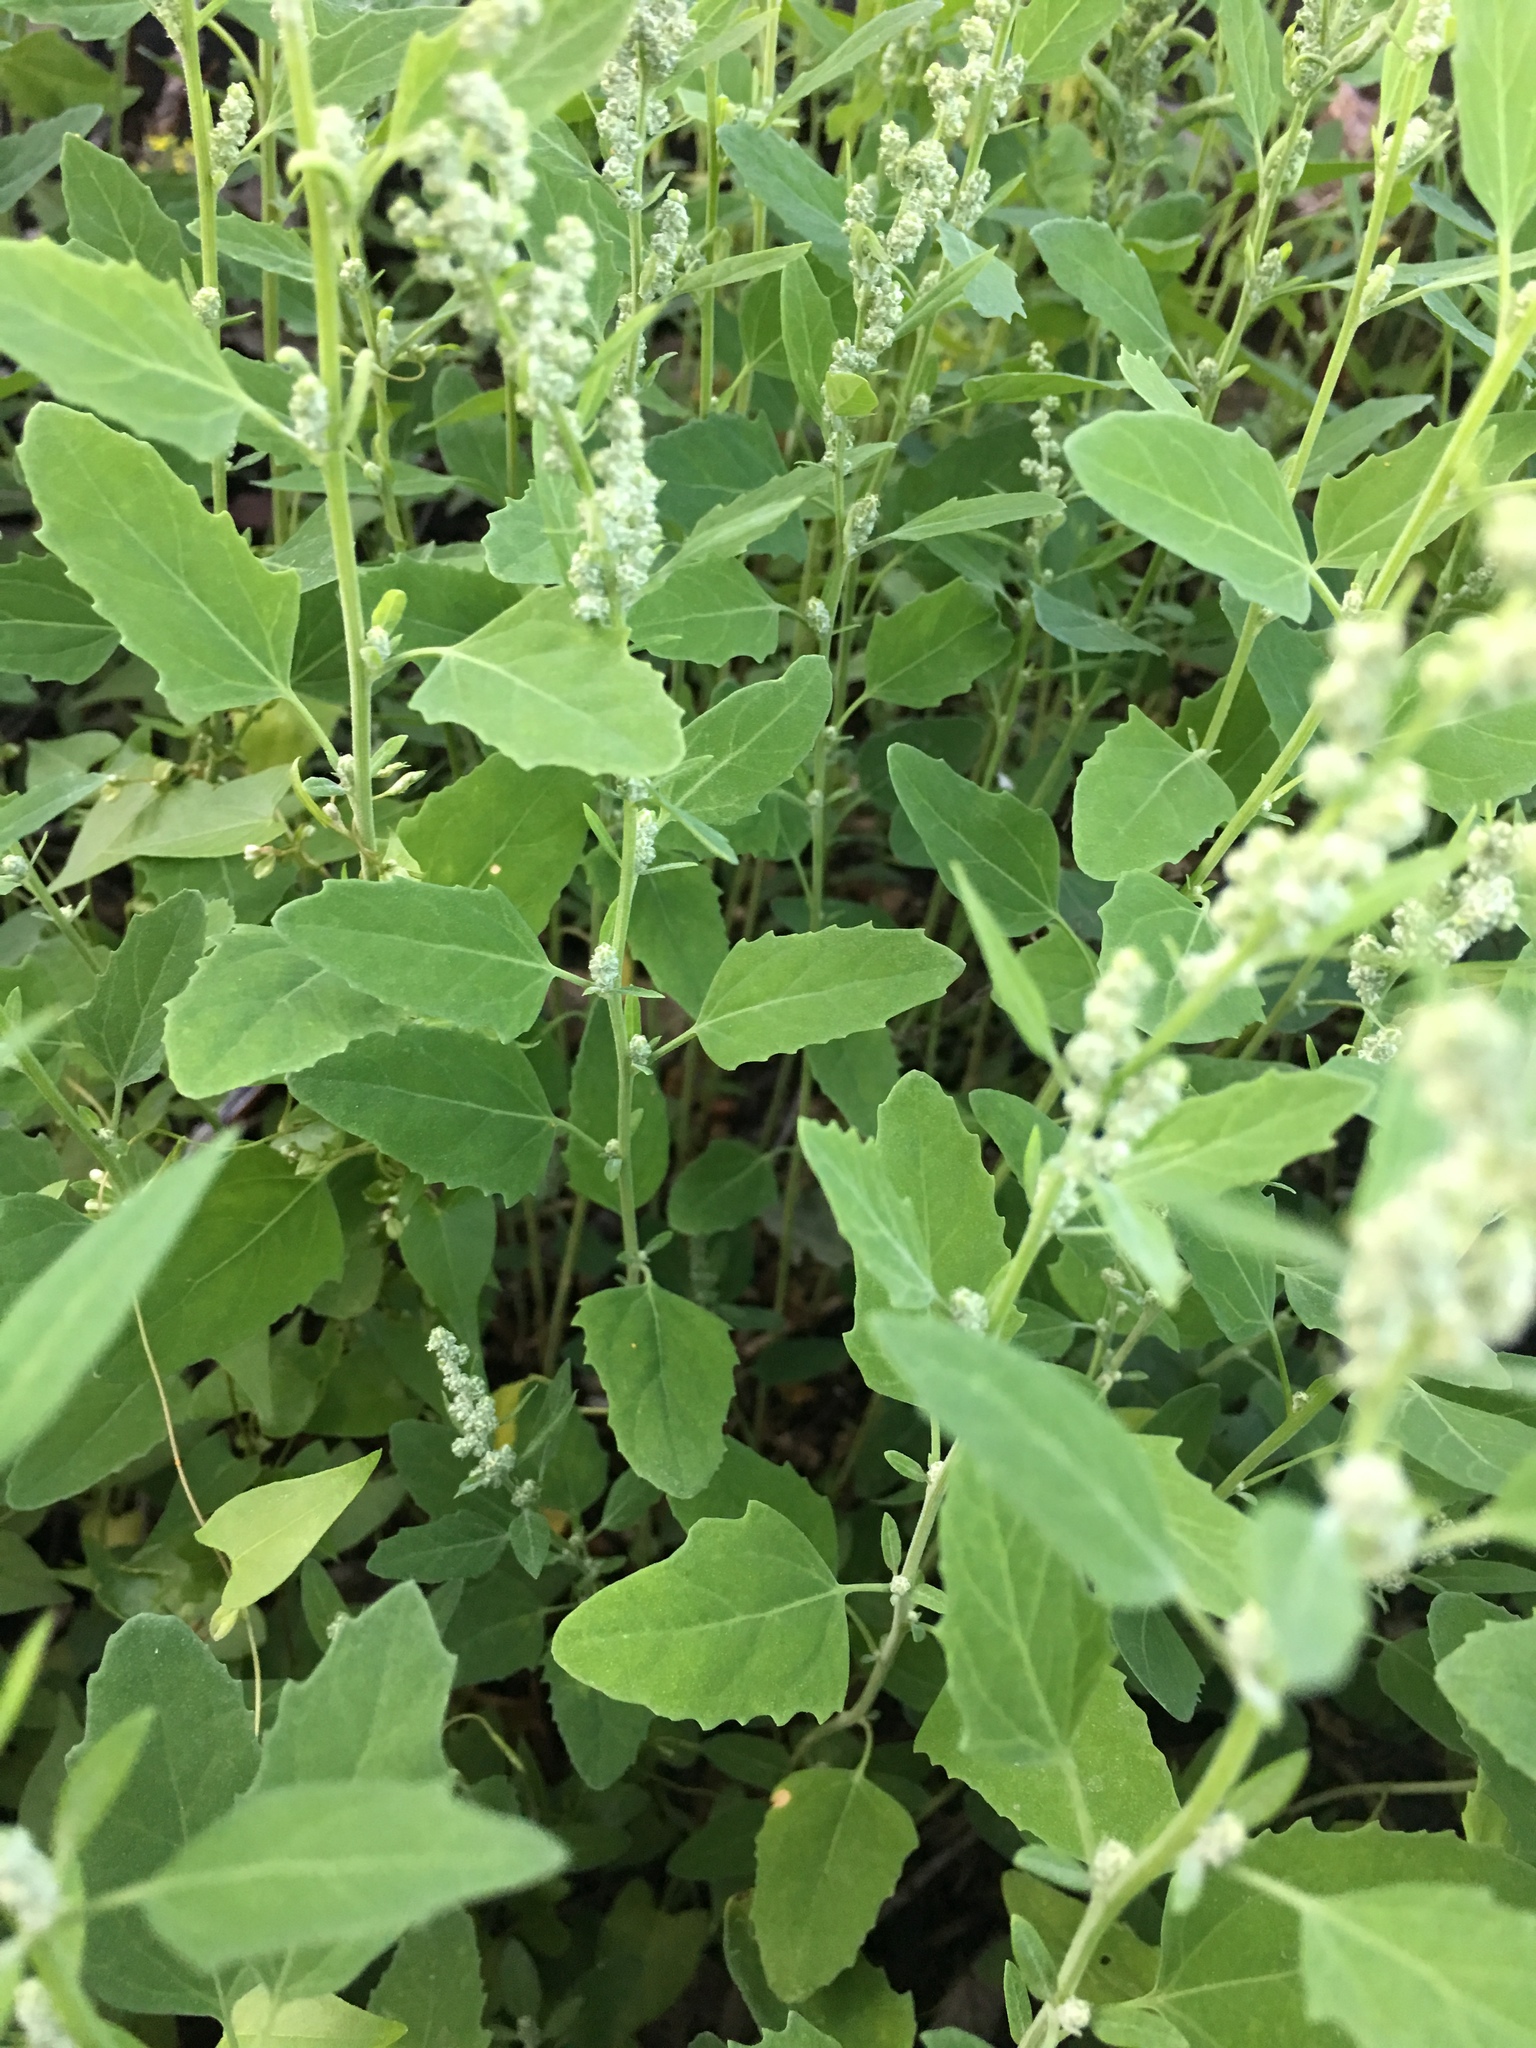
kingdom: Plantae
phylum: Tracheophyta
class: Magnoliopsida
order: Caryophyllales
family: Amaranthaceae
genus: Chenopodium
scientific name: Chenopodium album
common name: Fat-hen
